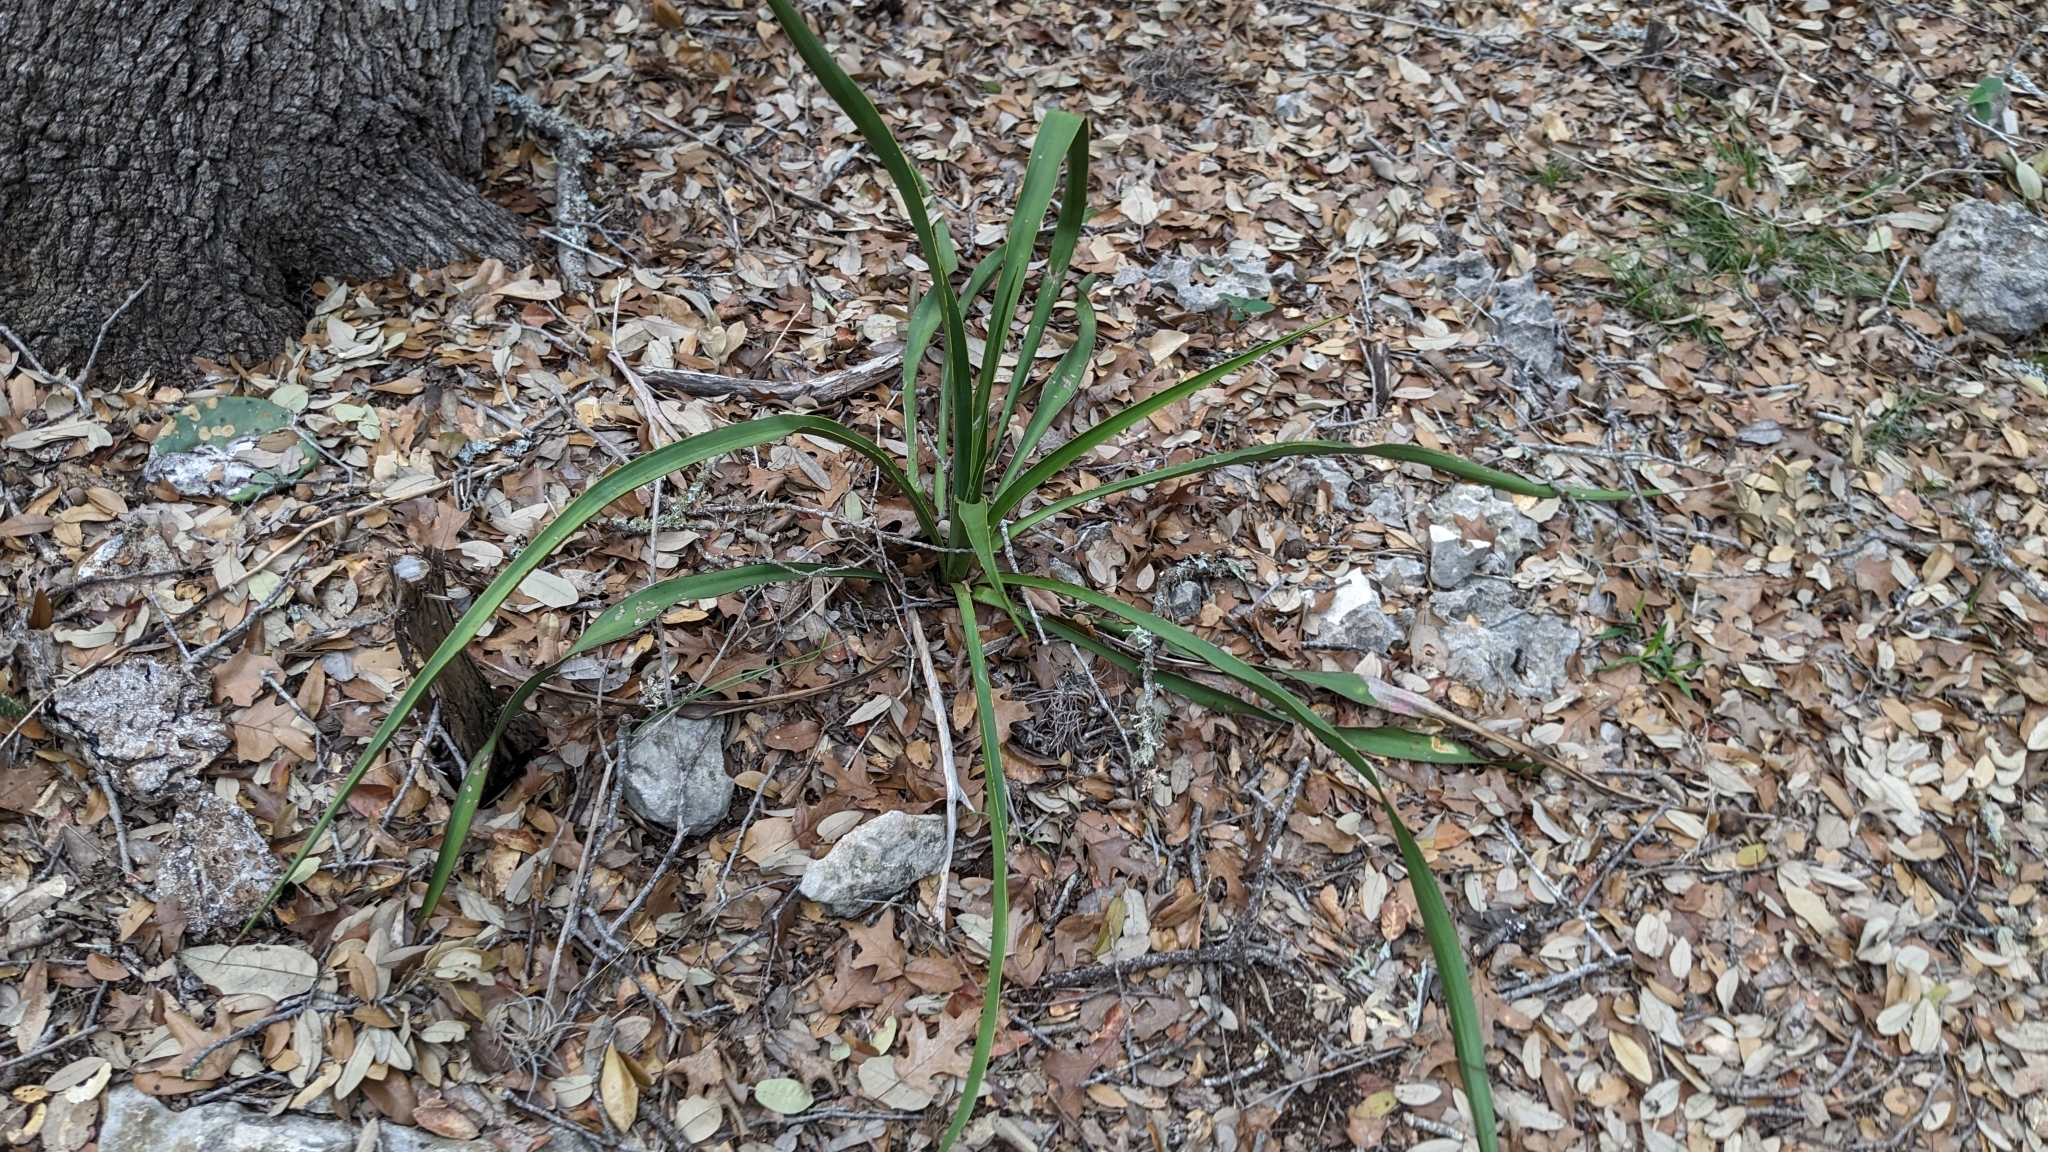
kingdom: Plantae
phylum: Tracheophyta
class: Liliopsida
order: Asparagales
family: Asparagaceae
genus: Yucca
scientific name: Yucca rupicola
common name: Twisted-leaf spanish-dagger
